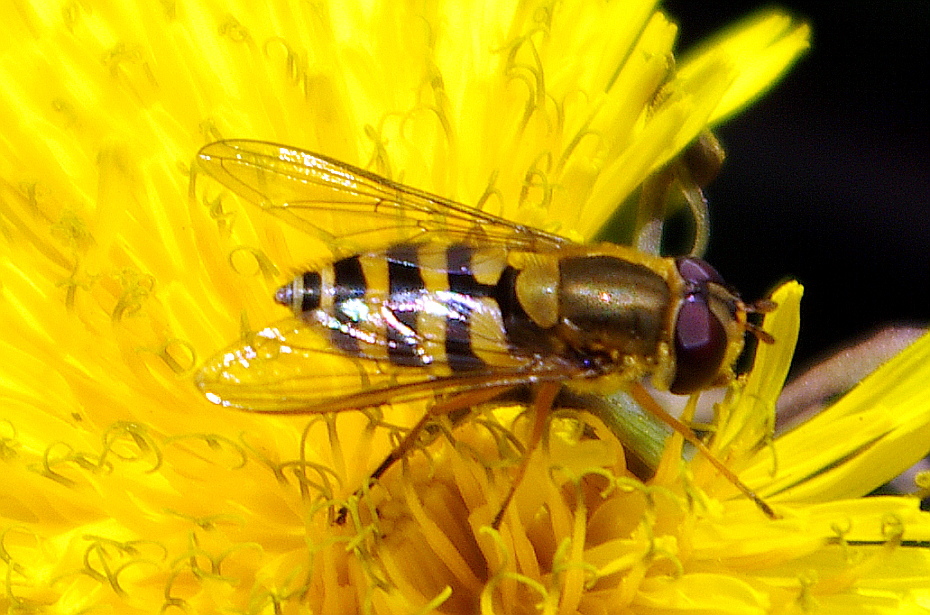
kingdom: Animalia
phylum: Arthropoda
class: Insecta
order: Diptera
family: Syrphidae
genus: Syrphus
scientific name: Syrphus ribesii
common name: Common flower fly
